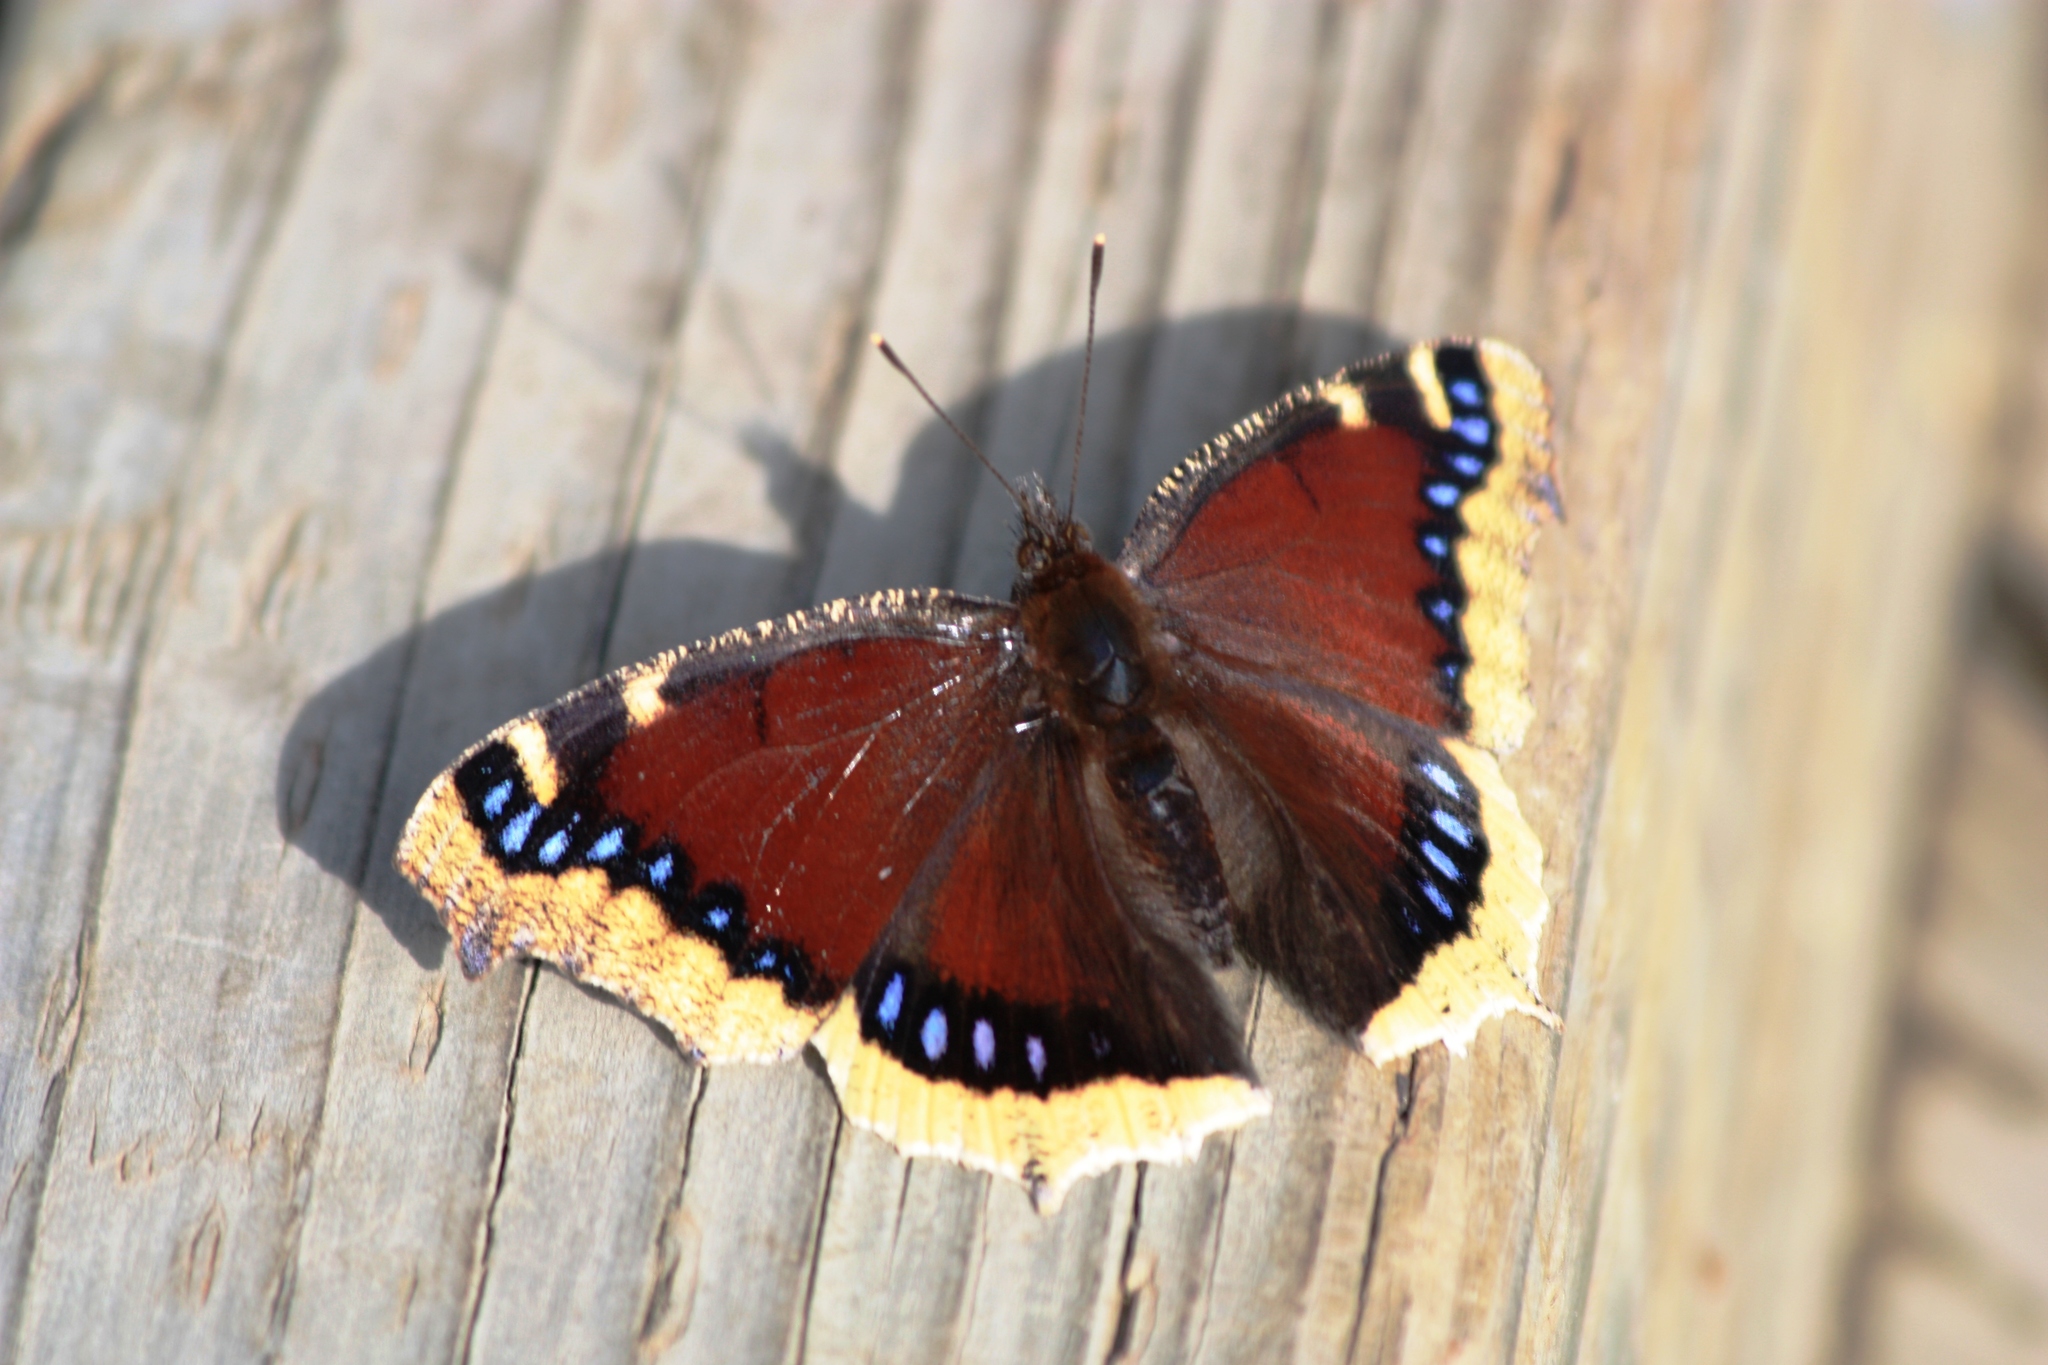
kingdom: Animalia
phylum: Arthropoda
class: Insecta
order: Lepidoptera
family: Nymphalidae
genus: Nymphalis
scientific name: Nymphalis antiopa
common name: Camberwell beauty
